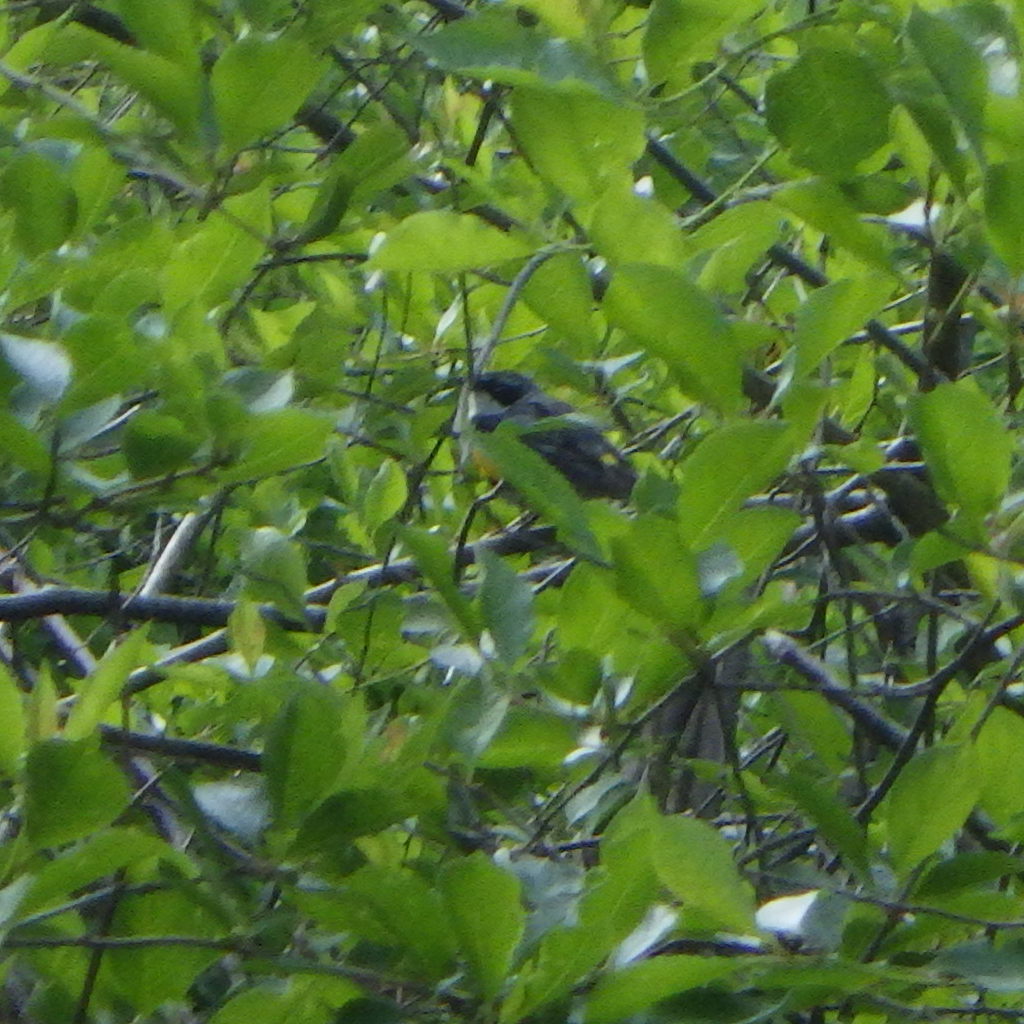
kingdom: Animalia
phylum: Chordata
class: Aves
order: Passeriformes
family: Parulidae
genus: Setophaga
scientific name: Setophaga coronata
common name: Myrtle warbler
